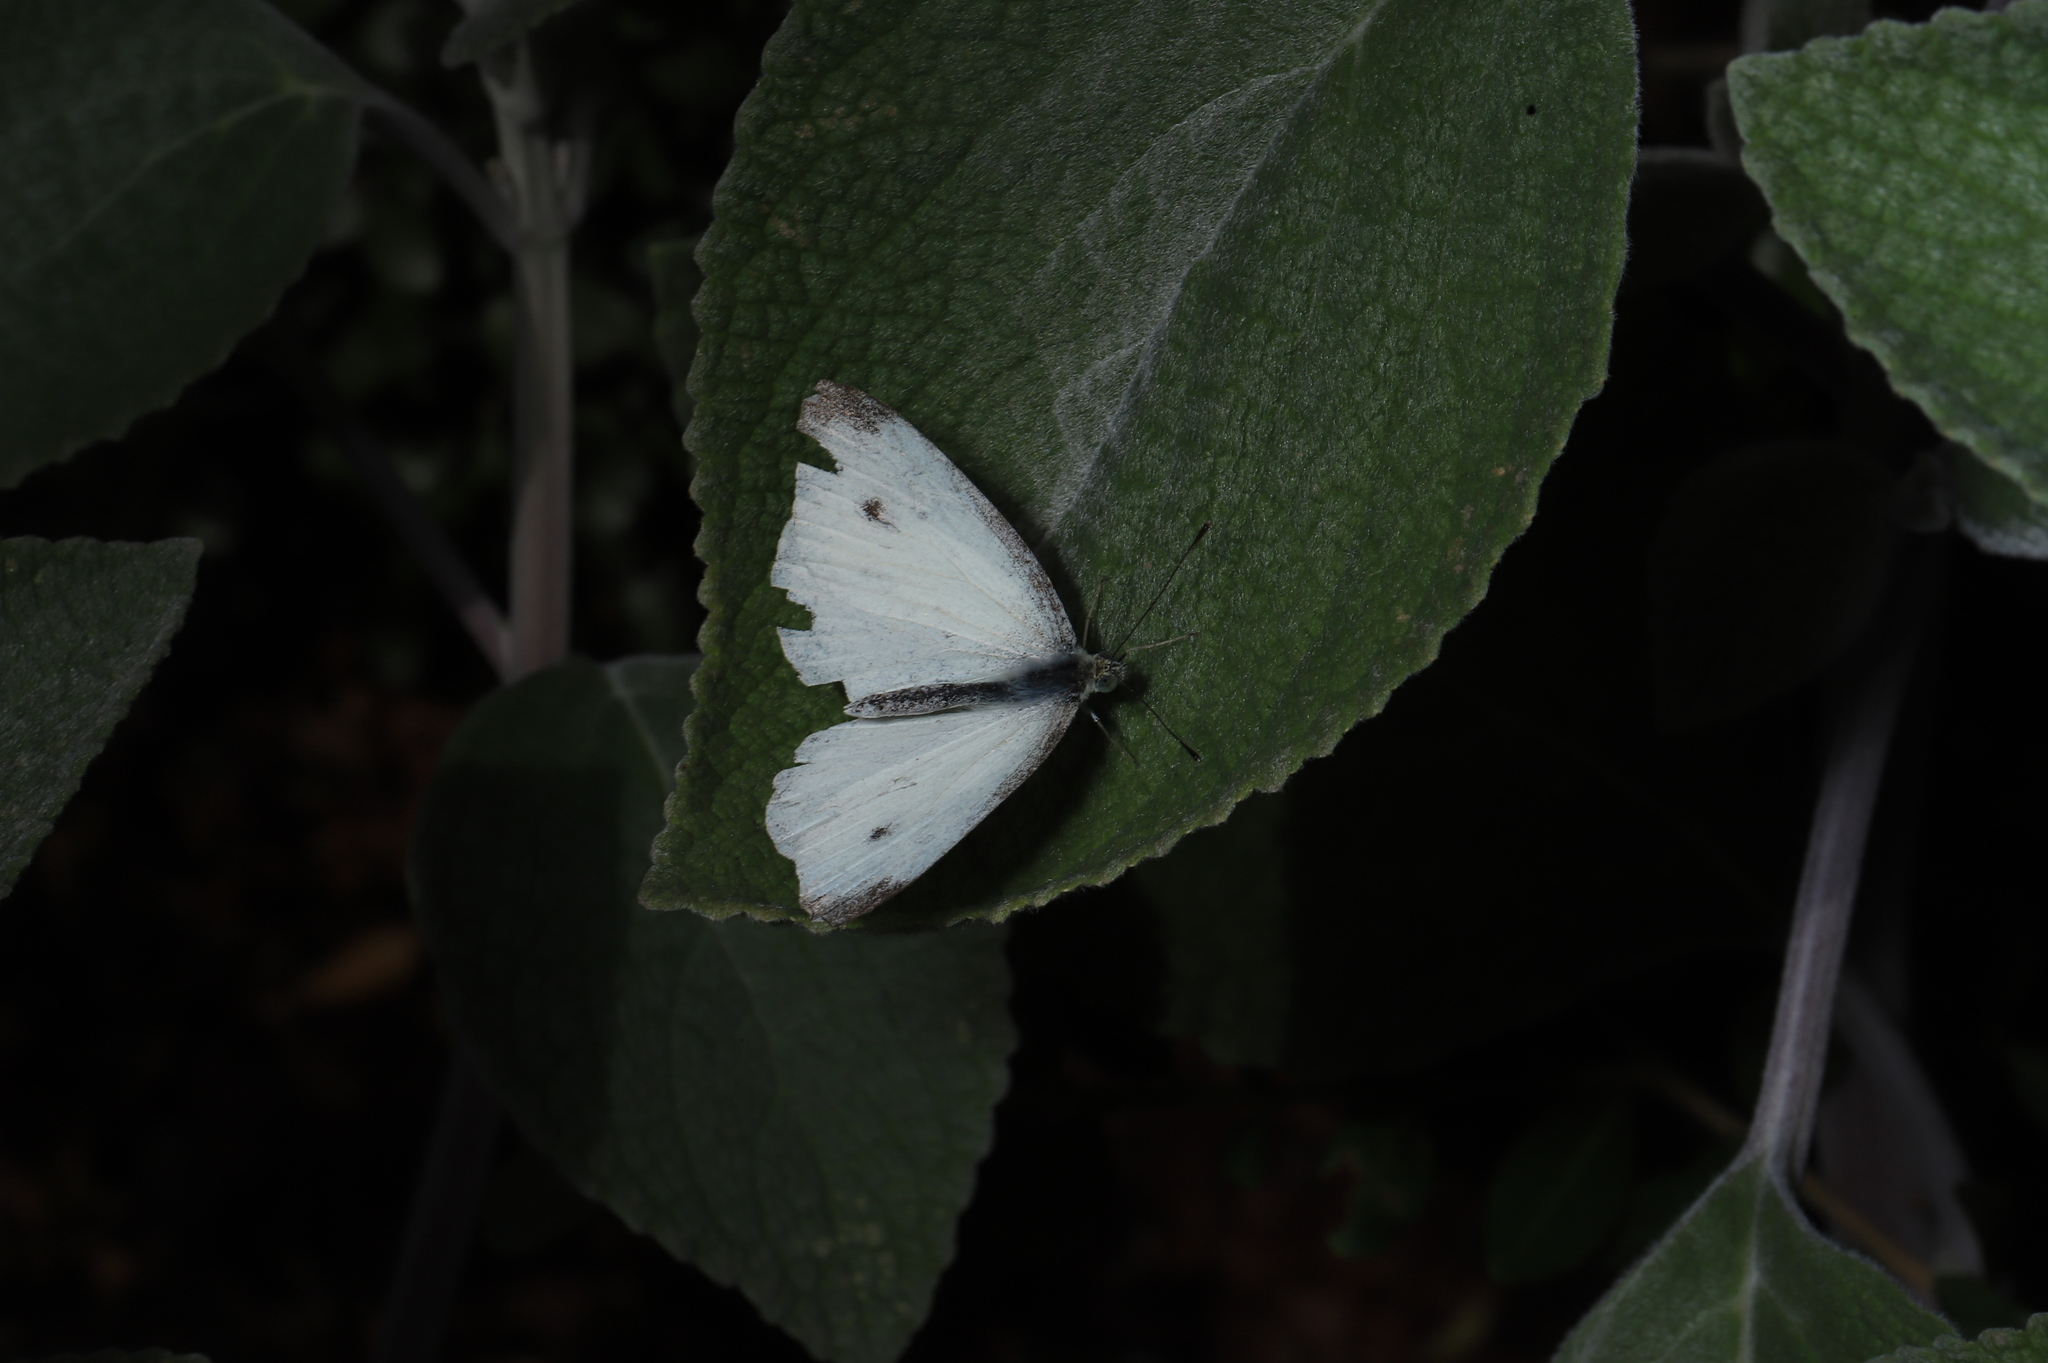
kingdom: Animalia
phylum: Arthropoda
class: Insecta
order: Lepidoptera
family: Pieridae
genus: Pieris
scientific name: Pieris rapae
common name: Small white
